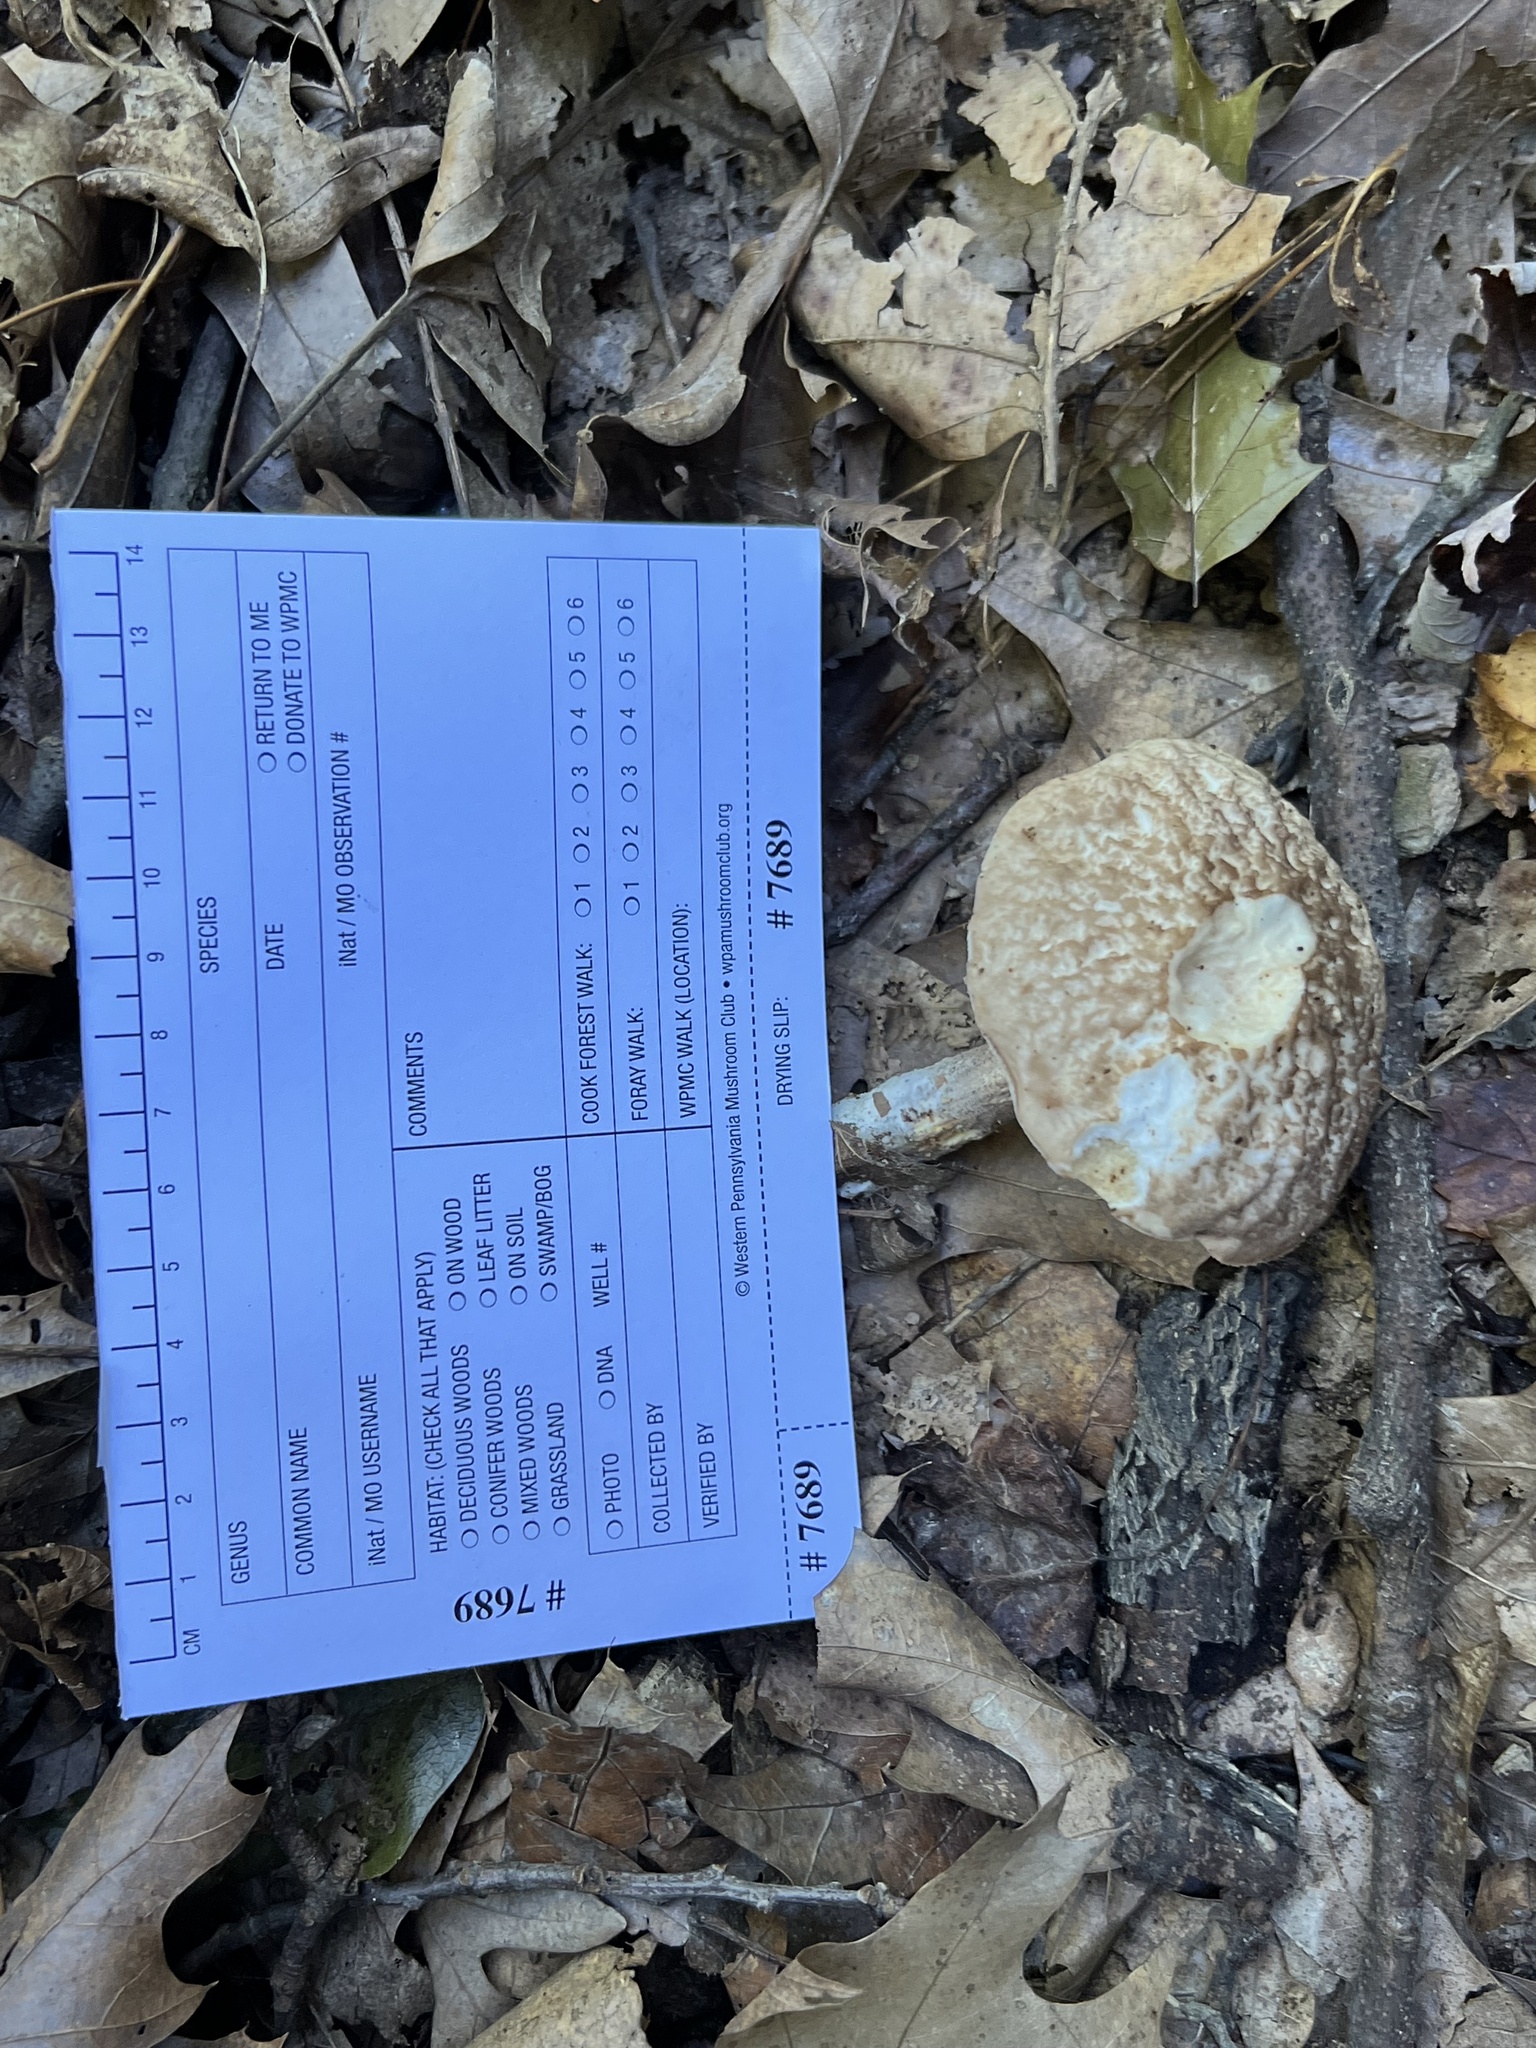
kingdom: Fungi
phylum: Basidiomycota
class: Agaricomycetes
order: Boletales
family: Boletaceae
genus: Leccinellum
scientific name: Leccinellum albellum
